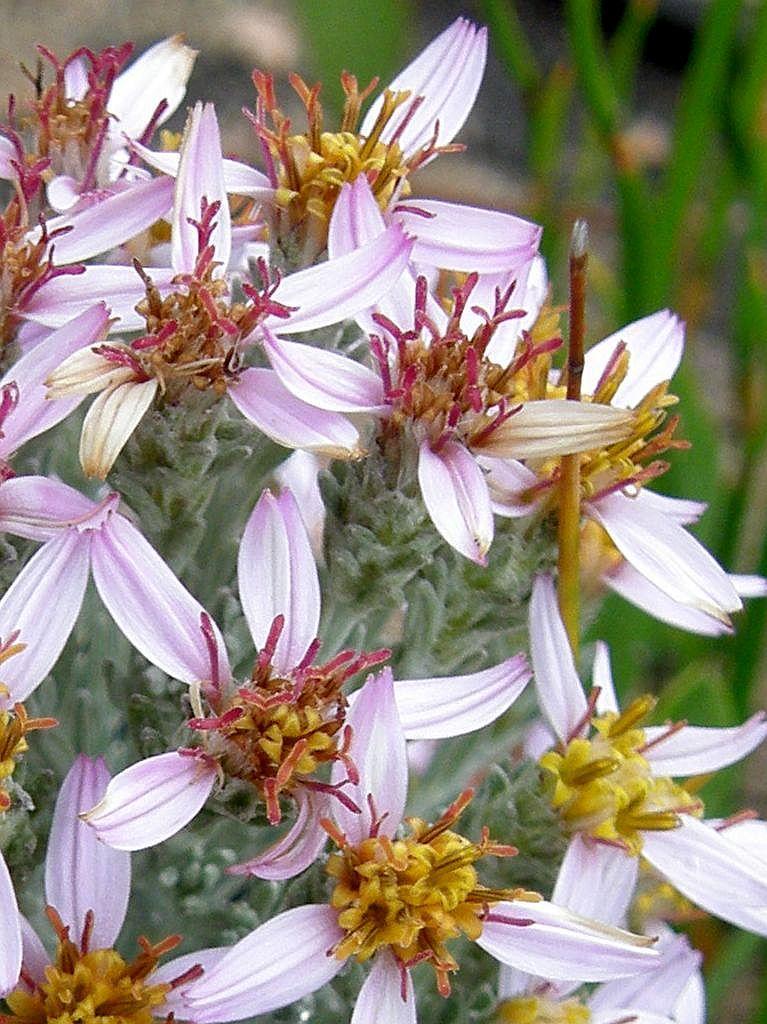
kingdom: Plantae
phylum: Tracheophyta
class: Magnoliopsida
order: Asterales
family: Asteraceae
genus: Printzia
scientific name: Printzia aromatica
